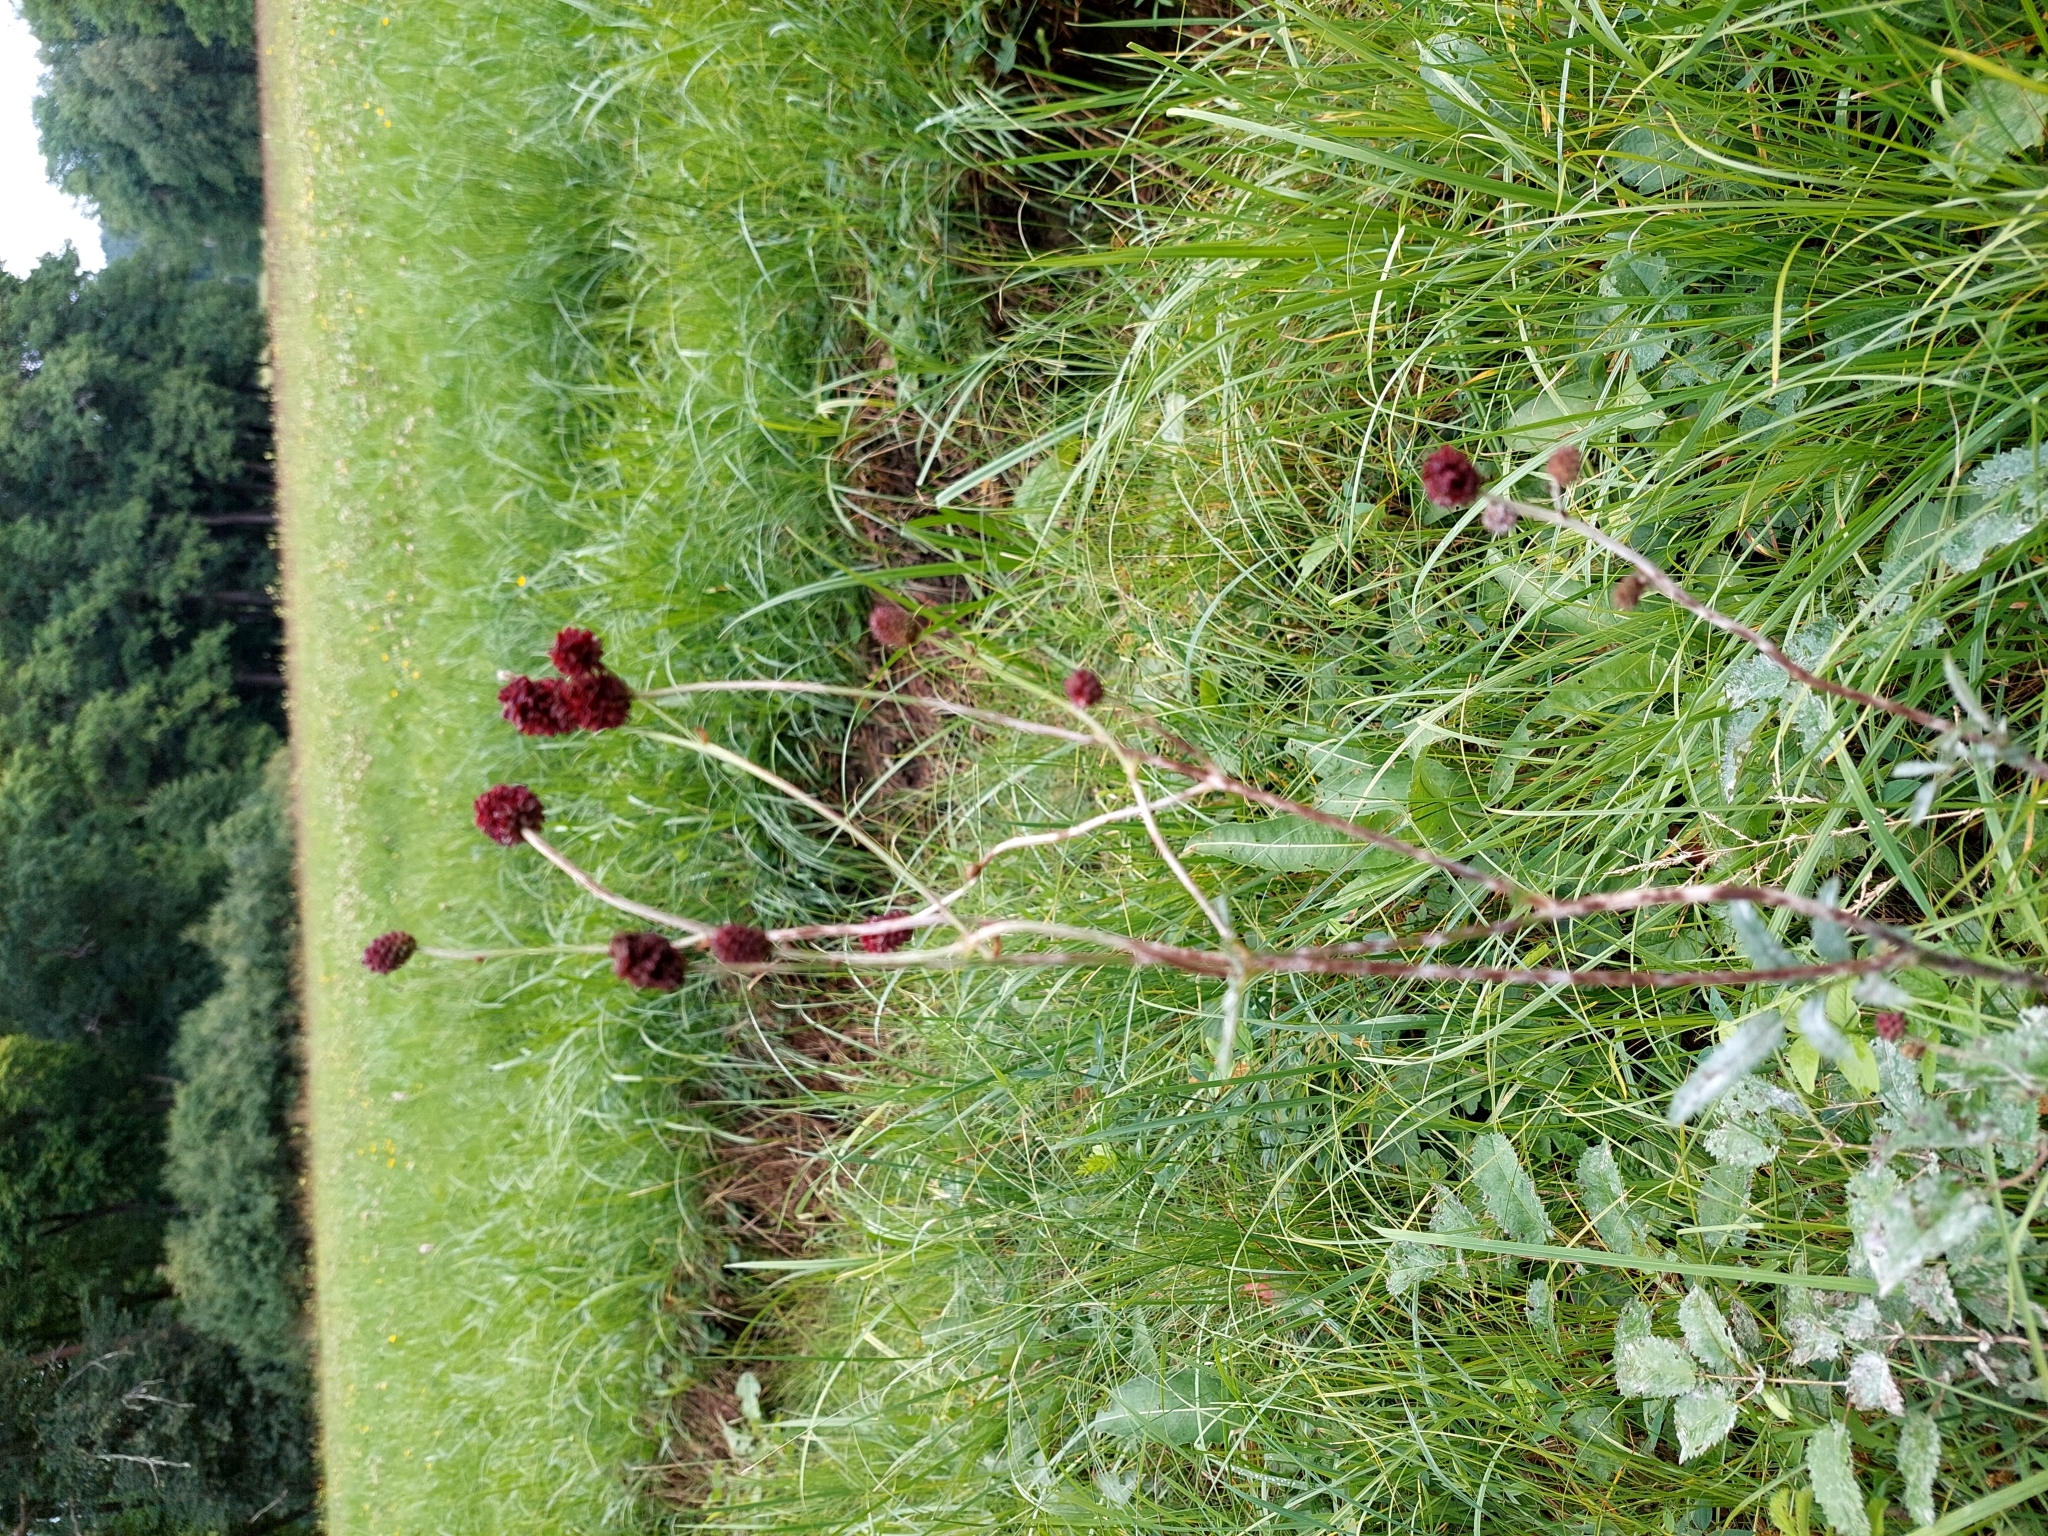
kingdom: Plantae
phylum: Tracheophyta
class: Magnoliopsida
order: Rosales
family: Rosaceae
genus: Sanguisorba
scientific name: Sanguisorba officinalis
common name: Great burnet
